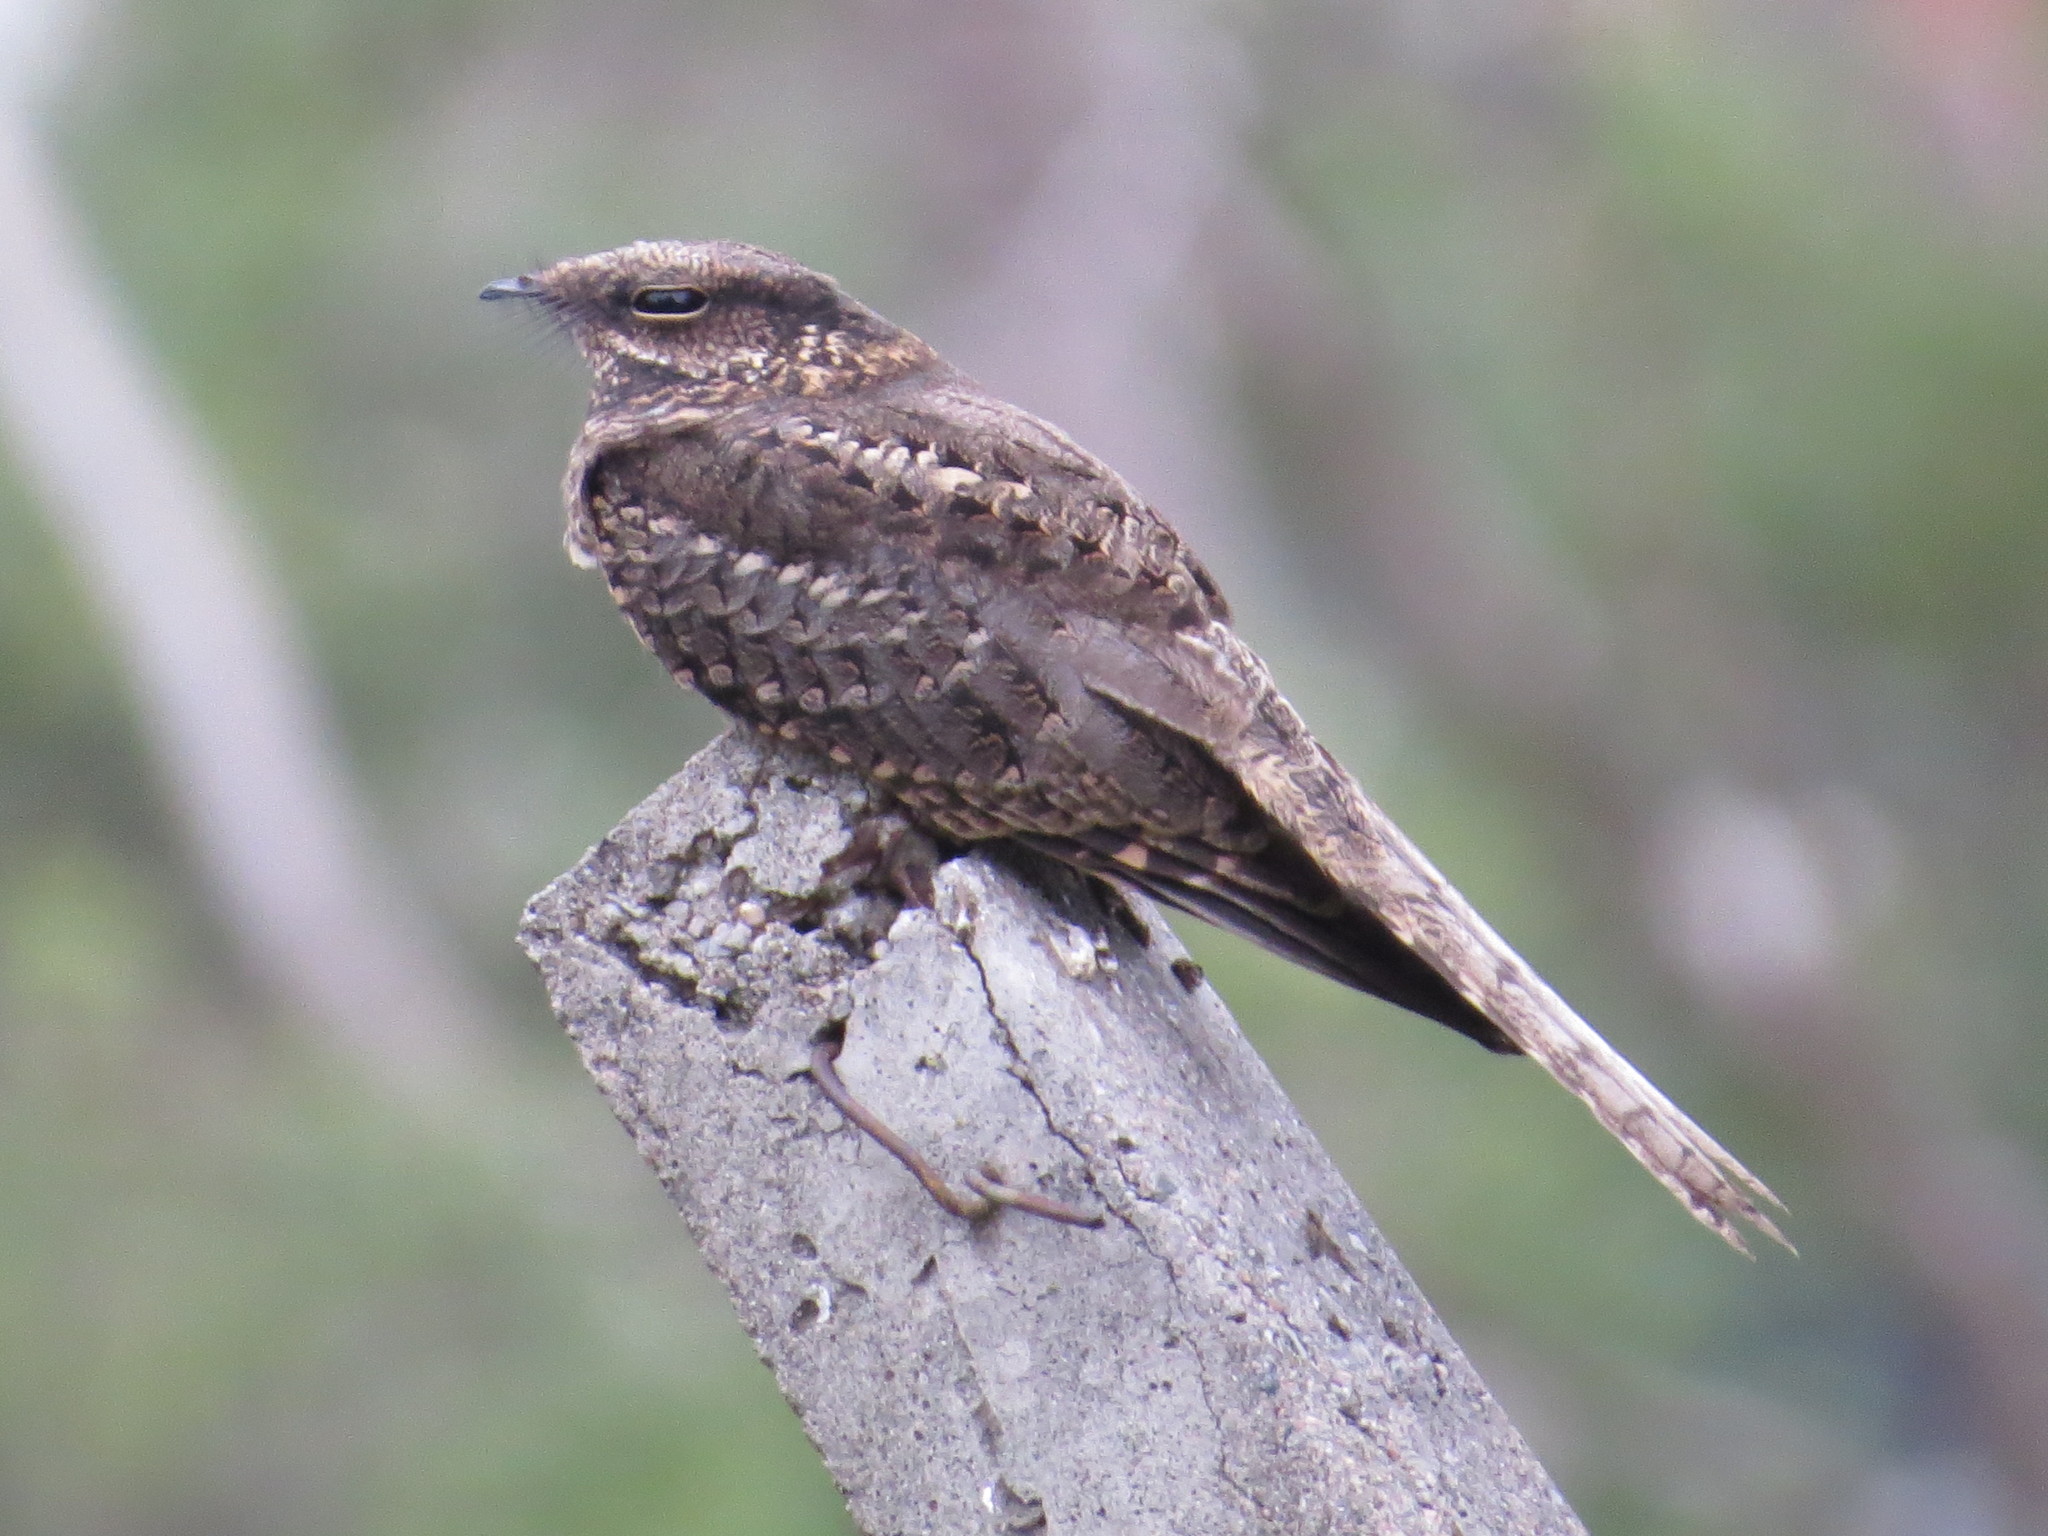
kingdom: Animalia
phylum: Chordata
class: Aves
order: Caprimulgiformes
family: Caprimulgidae
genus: Hydropsalis
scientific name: Hydropsalis torquata
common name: Scissor-tailed nightjar
